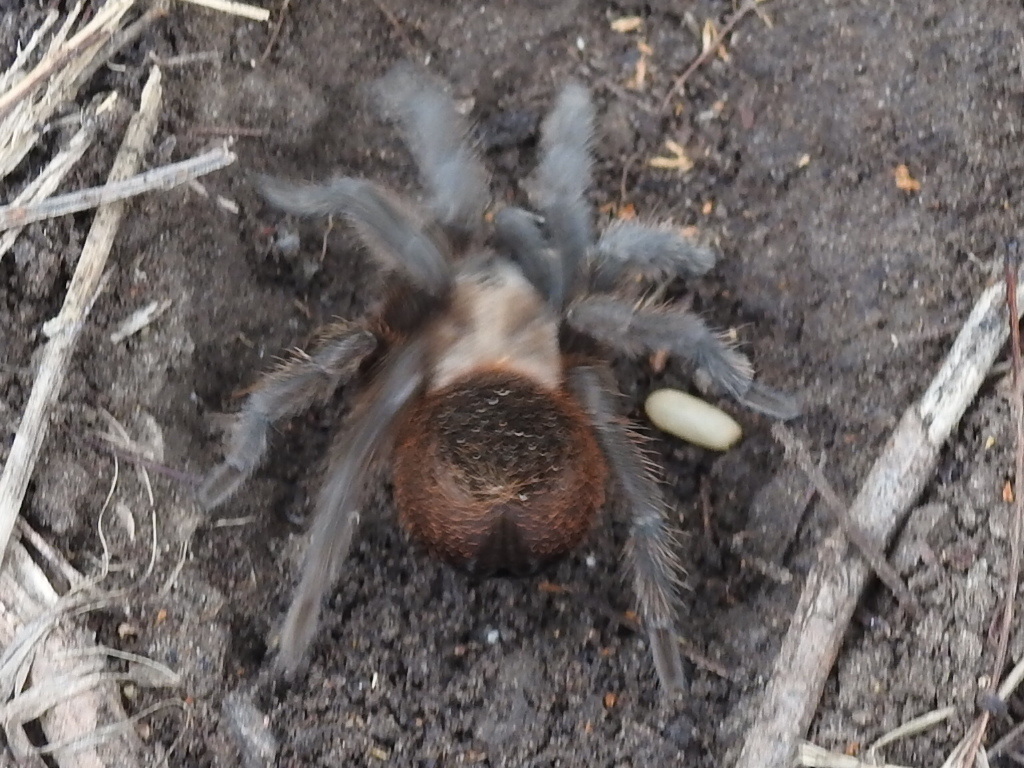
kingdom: Animalia
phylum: Arthropoda
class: Arachnida
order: Araneae
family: Theraphosidae
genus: Aphonopelma
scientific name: Aphonopelma anax
